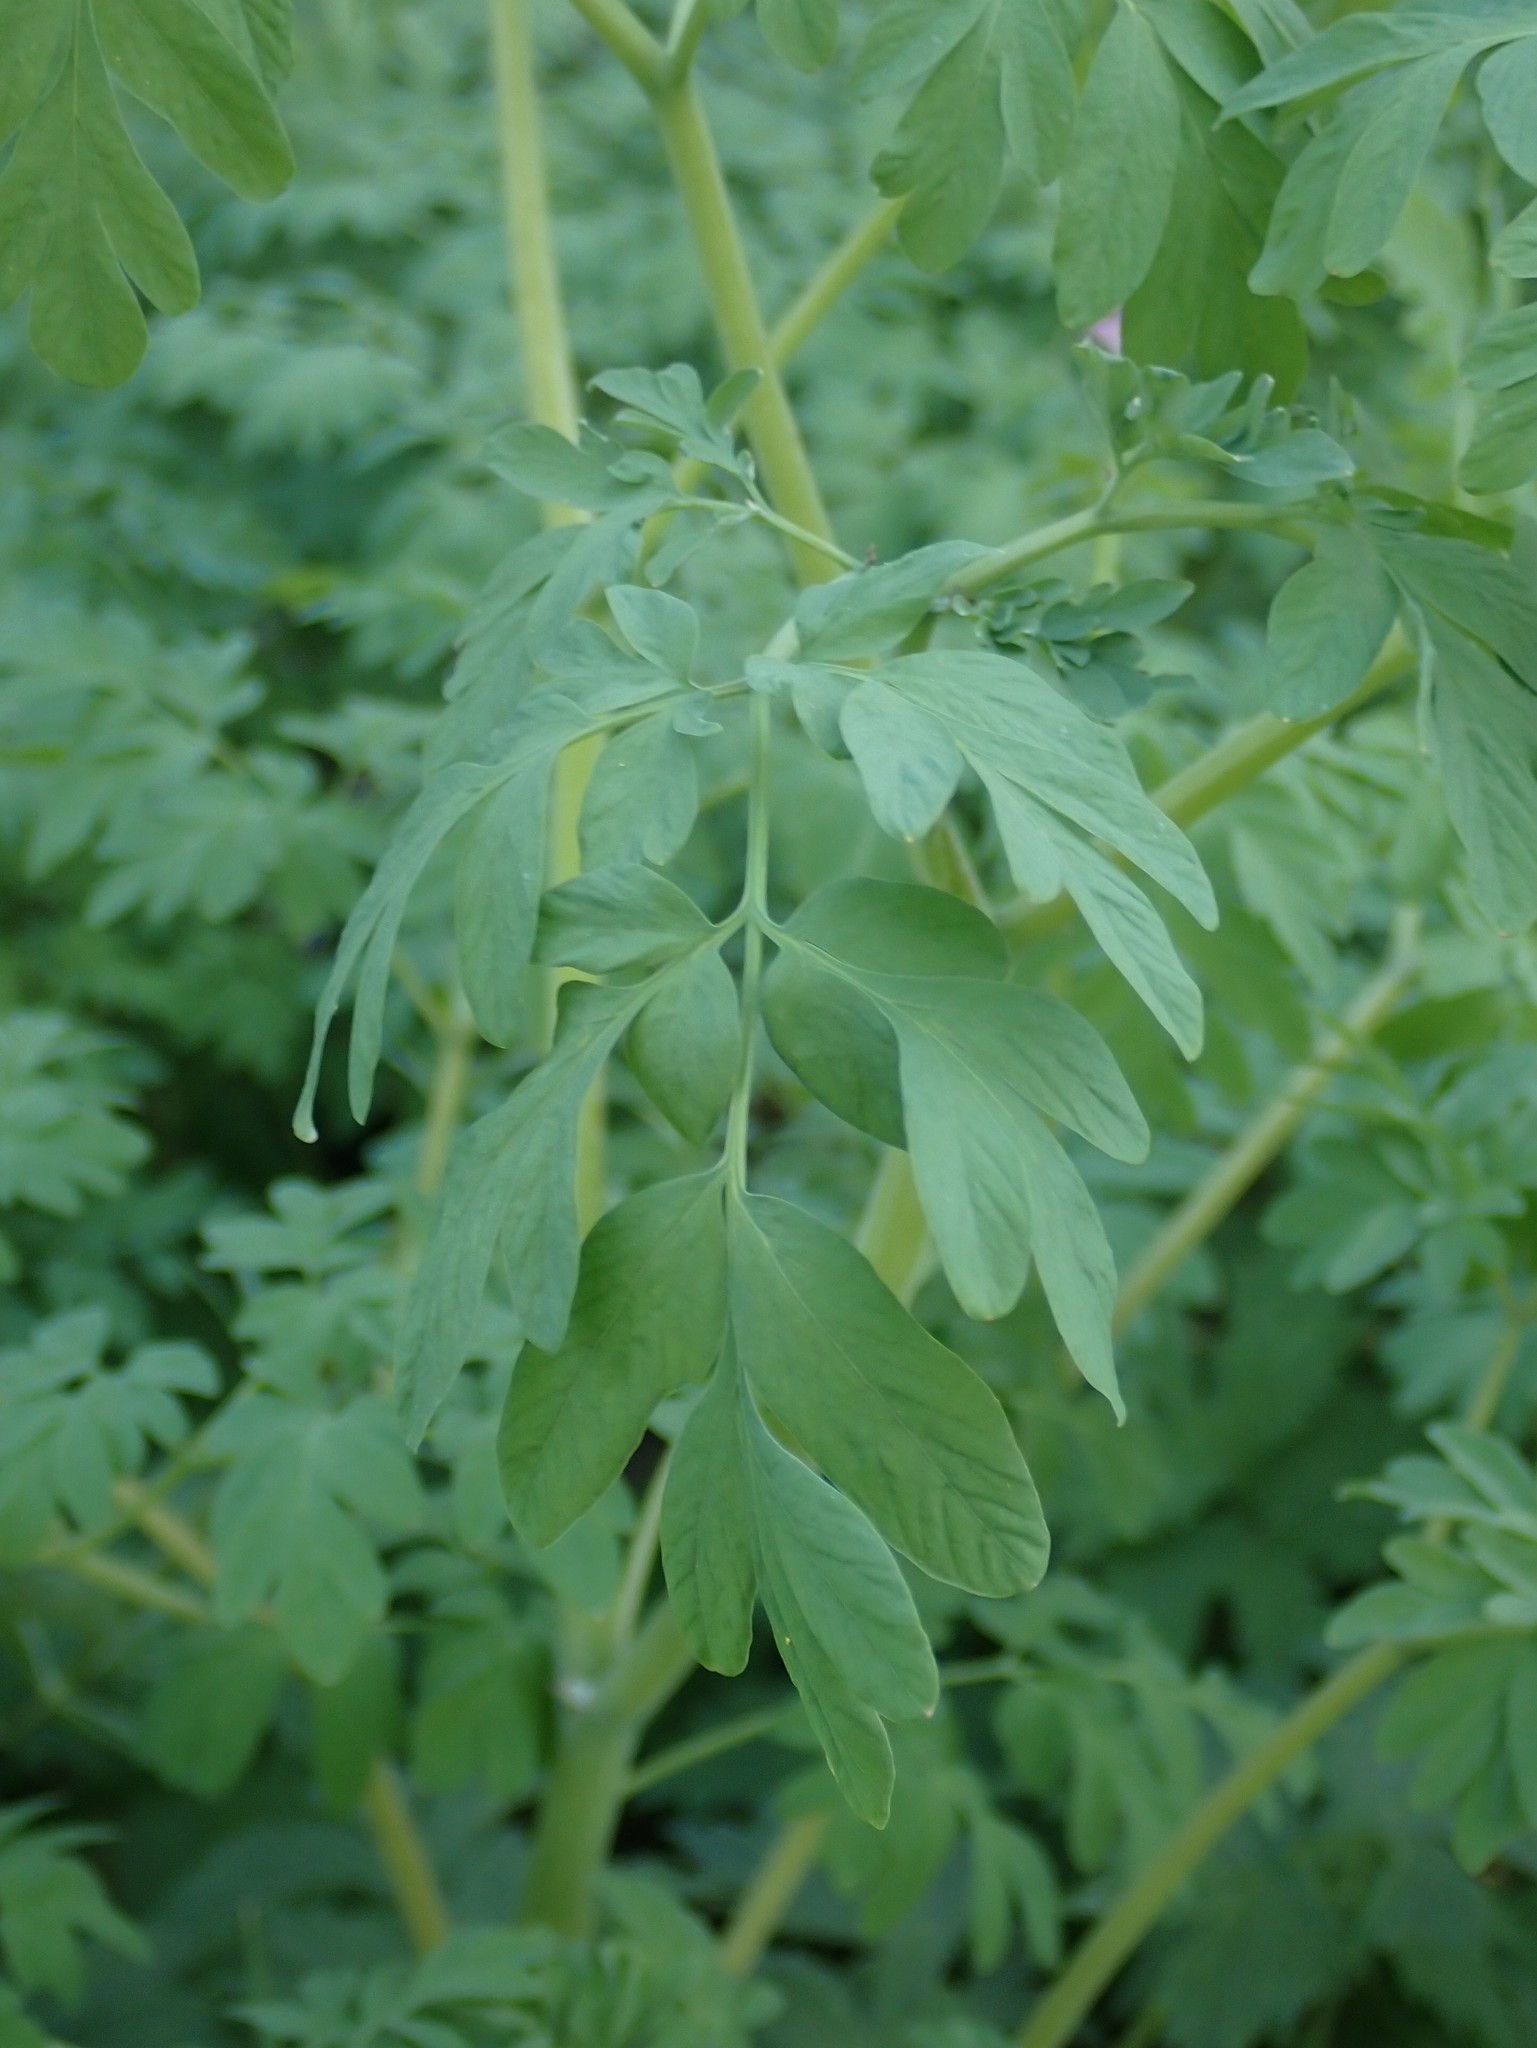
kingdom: Plantae
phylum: Tracheophyta
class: Magnoliopsida
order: Ranunculales
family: Papaveraceae
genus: Corydalis
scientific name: Corydalis scouleri
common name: Scouler's corydalis
